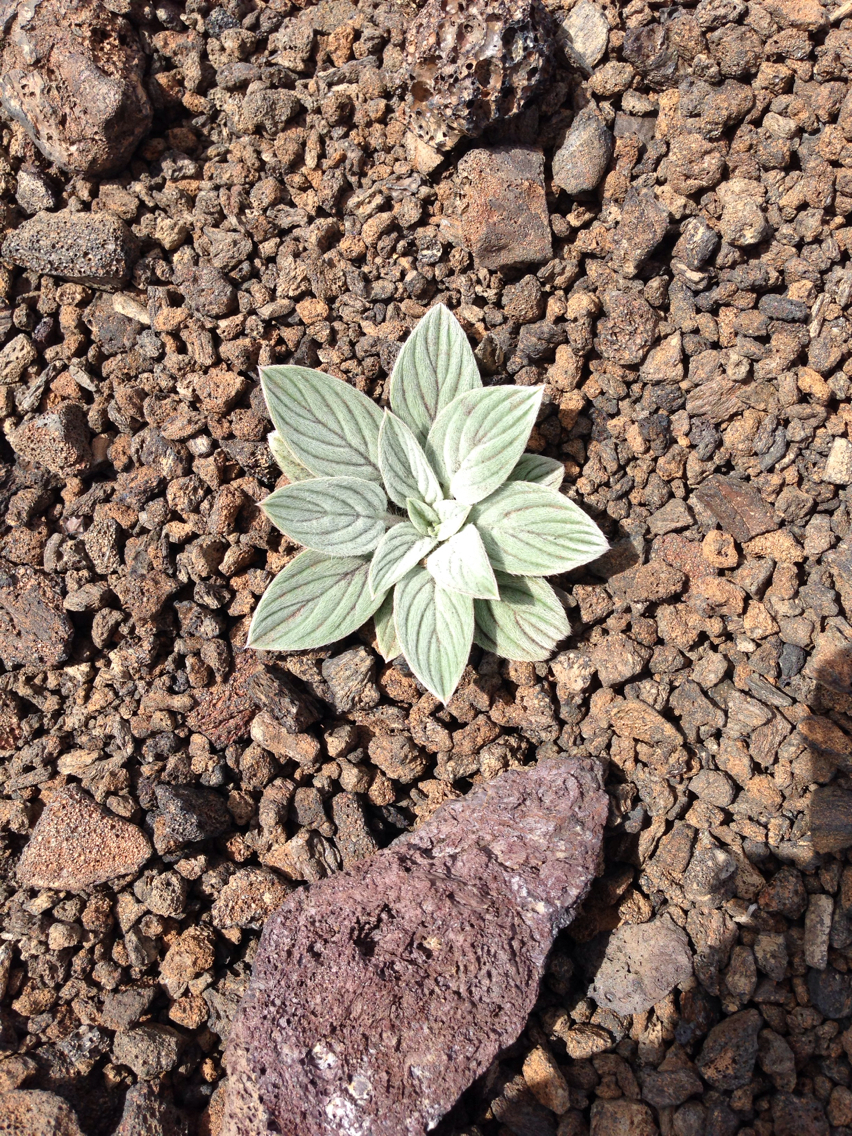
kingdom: Plantae
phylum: Tracheophyta
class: Magnoliopsida
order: Boraginales
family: Hydrophyllaceae
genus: Phacelia
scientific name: Phacelia hastata
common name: Silver-leaved phacelia
